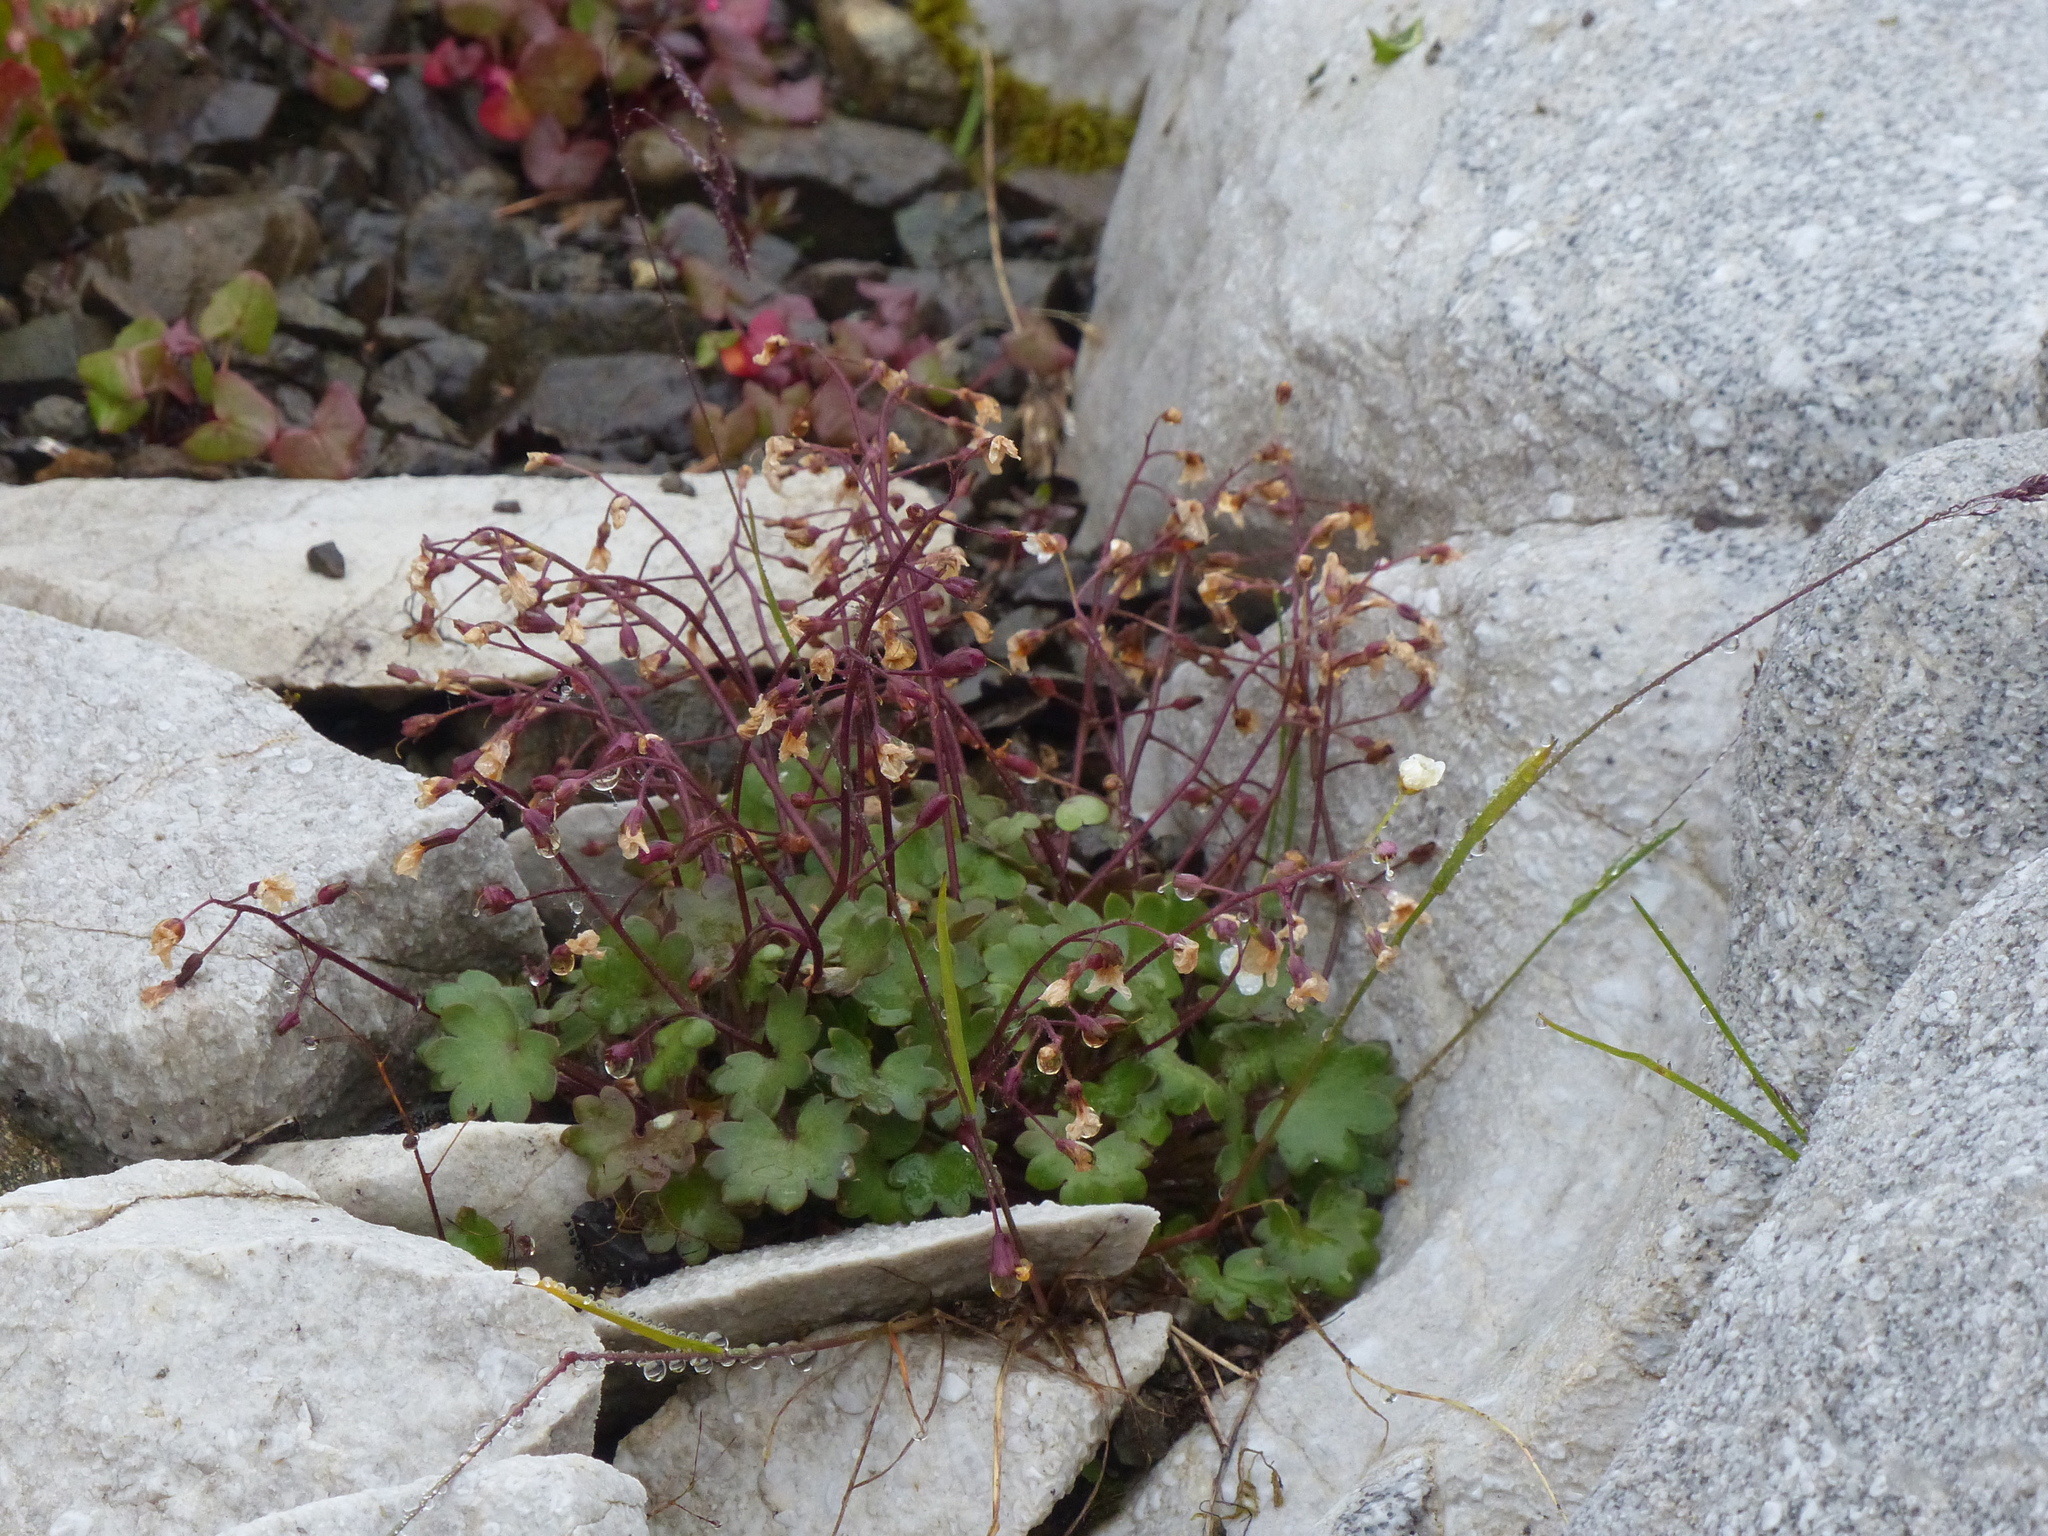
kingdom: Plantae
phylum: Tracheophyta
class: Magnoliopsida
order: Boraginales
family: Hydrophyllaceae
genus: Romanzoffia
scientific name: Romanzoffia sitchensis
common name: Sitka mistmaid
